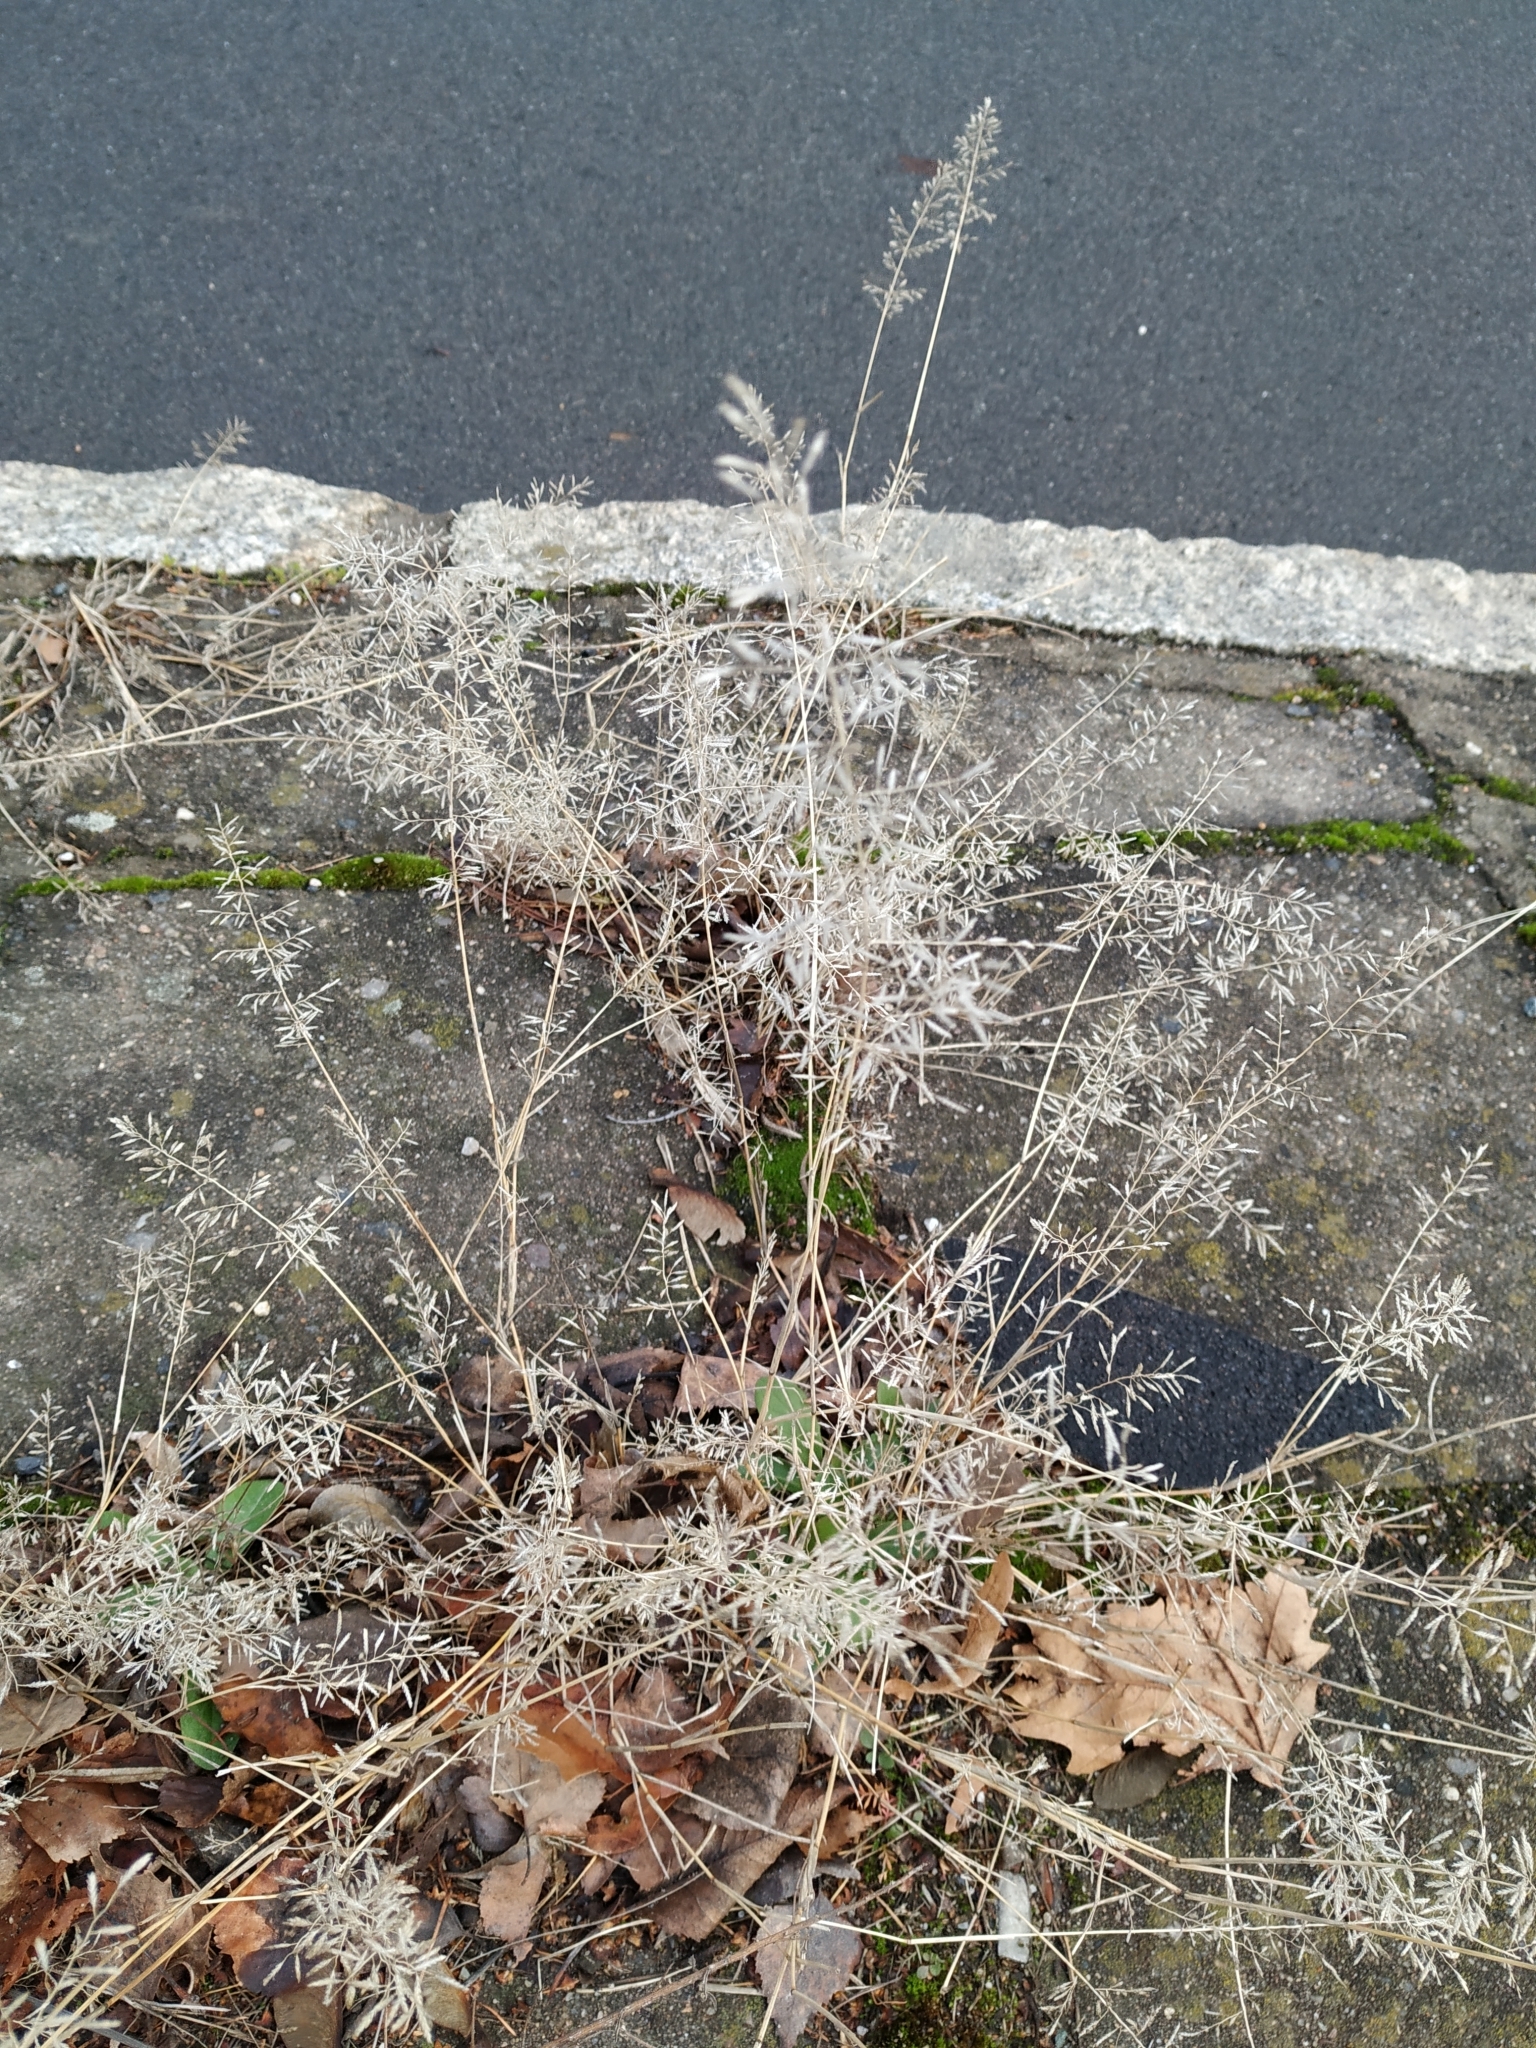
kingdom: Plantae
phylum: Tracheophyta
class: Liliopsida
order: Poales
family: Poaceae
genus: Eragrostis
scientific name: Eragrostis minor
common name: Small love-grass
